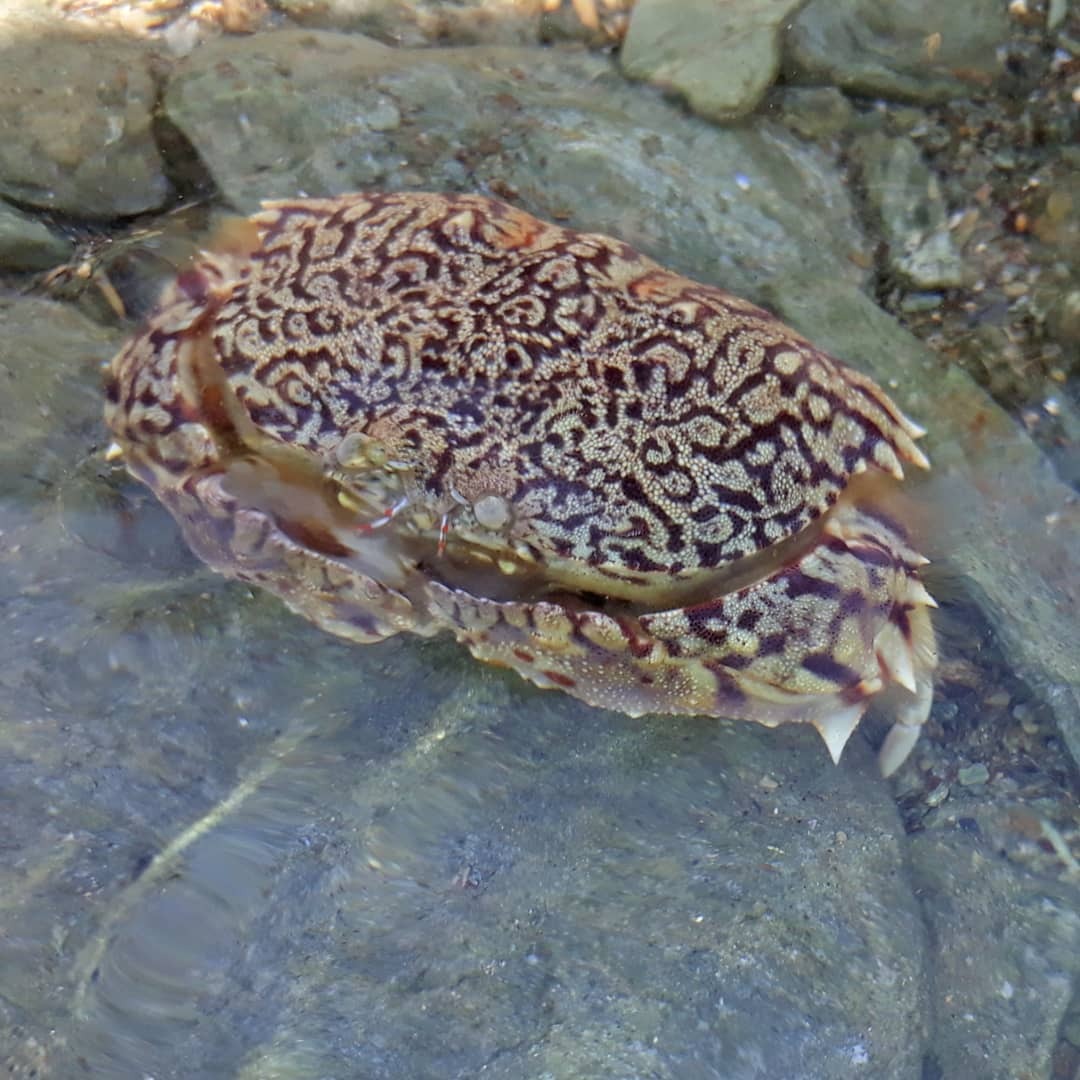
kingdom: Animalia
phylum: Arthropoda
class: Malacostraca
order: Decapoda
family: Calappidae
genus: Calappa
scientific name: Calappa ocellata
